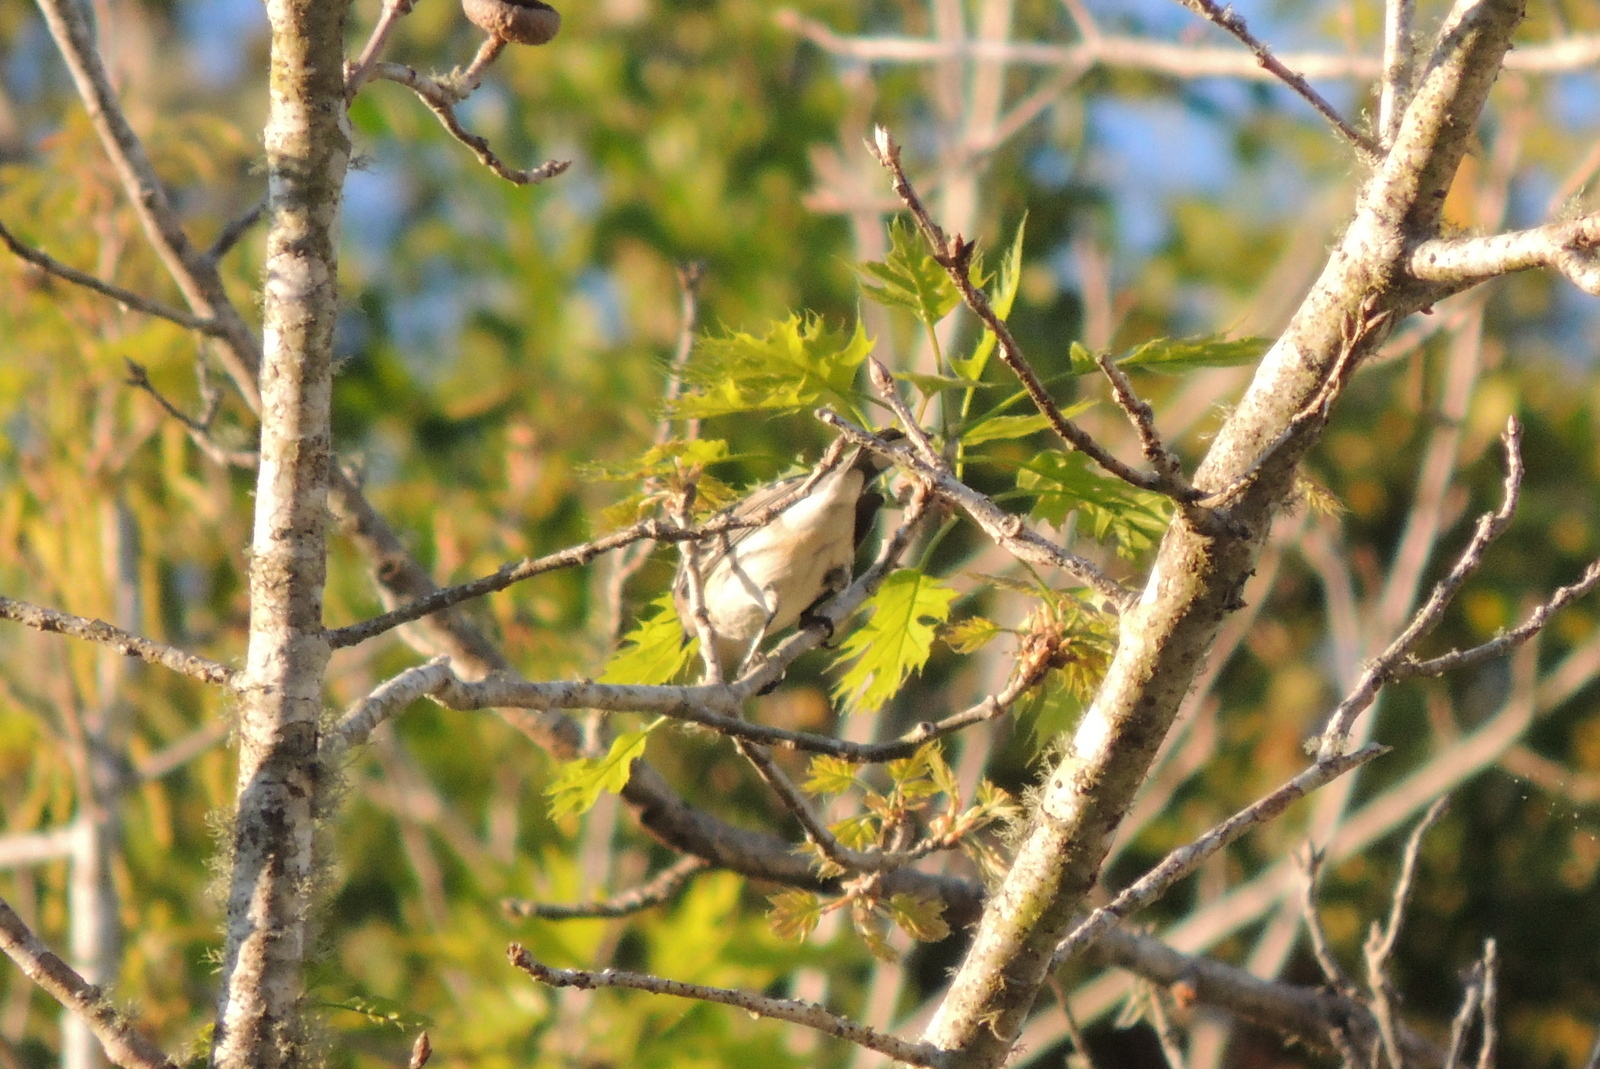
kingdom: Animalia
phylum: Chordata
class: Aves
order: Passeriformes
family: Parulidae
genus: Setophaga
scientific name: Setophaga coronata
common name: Myrtle warbler
